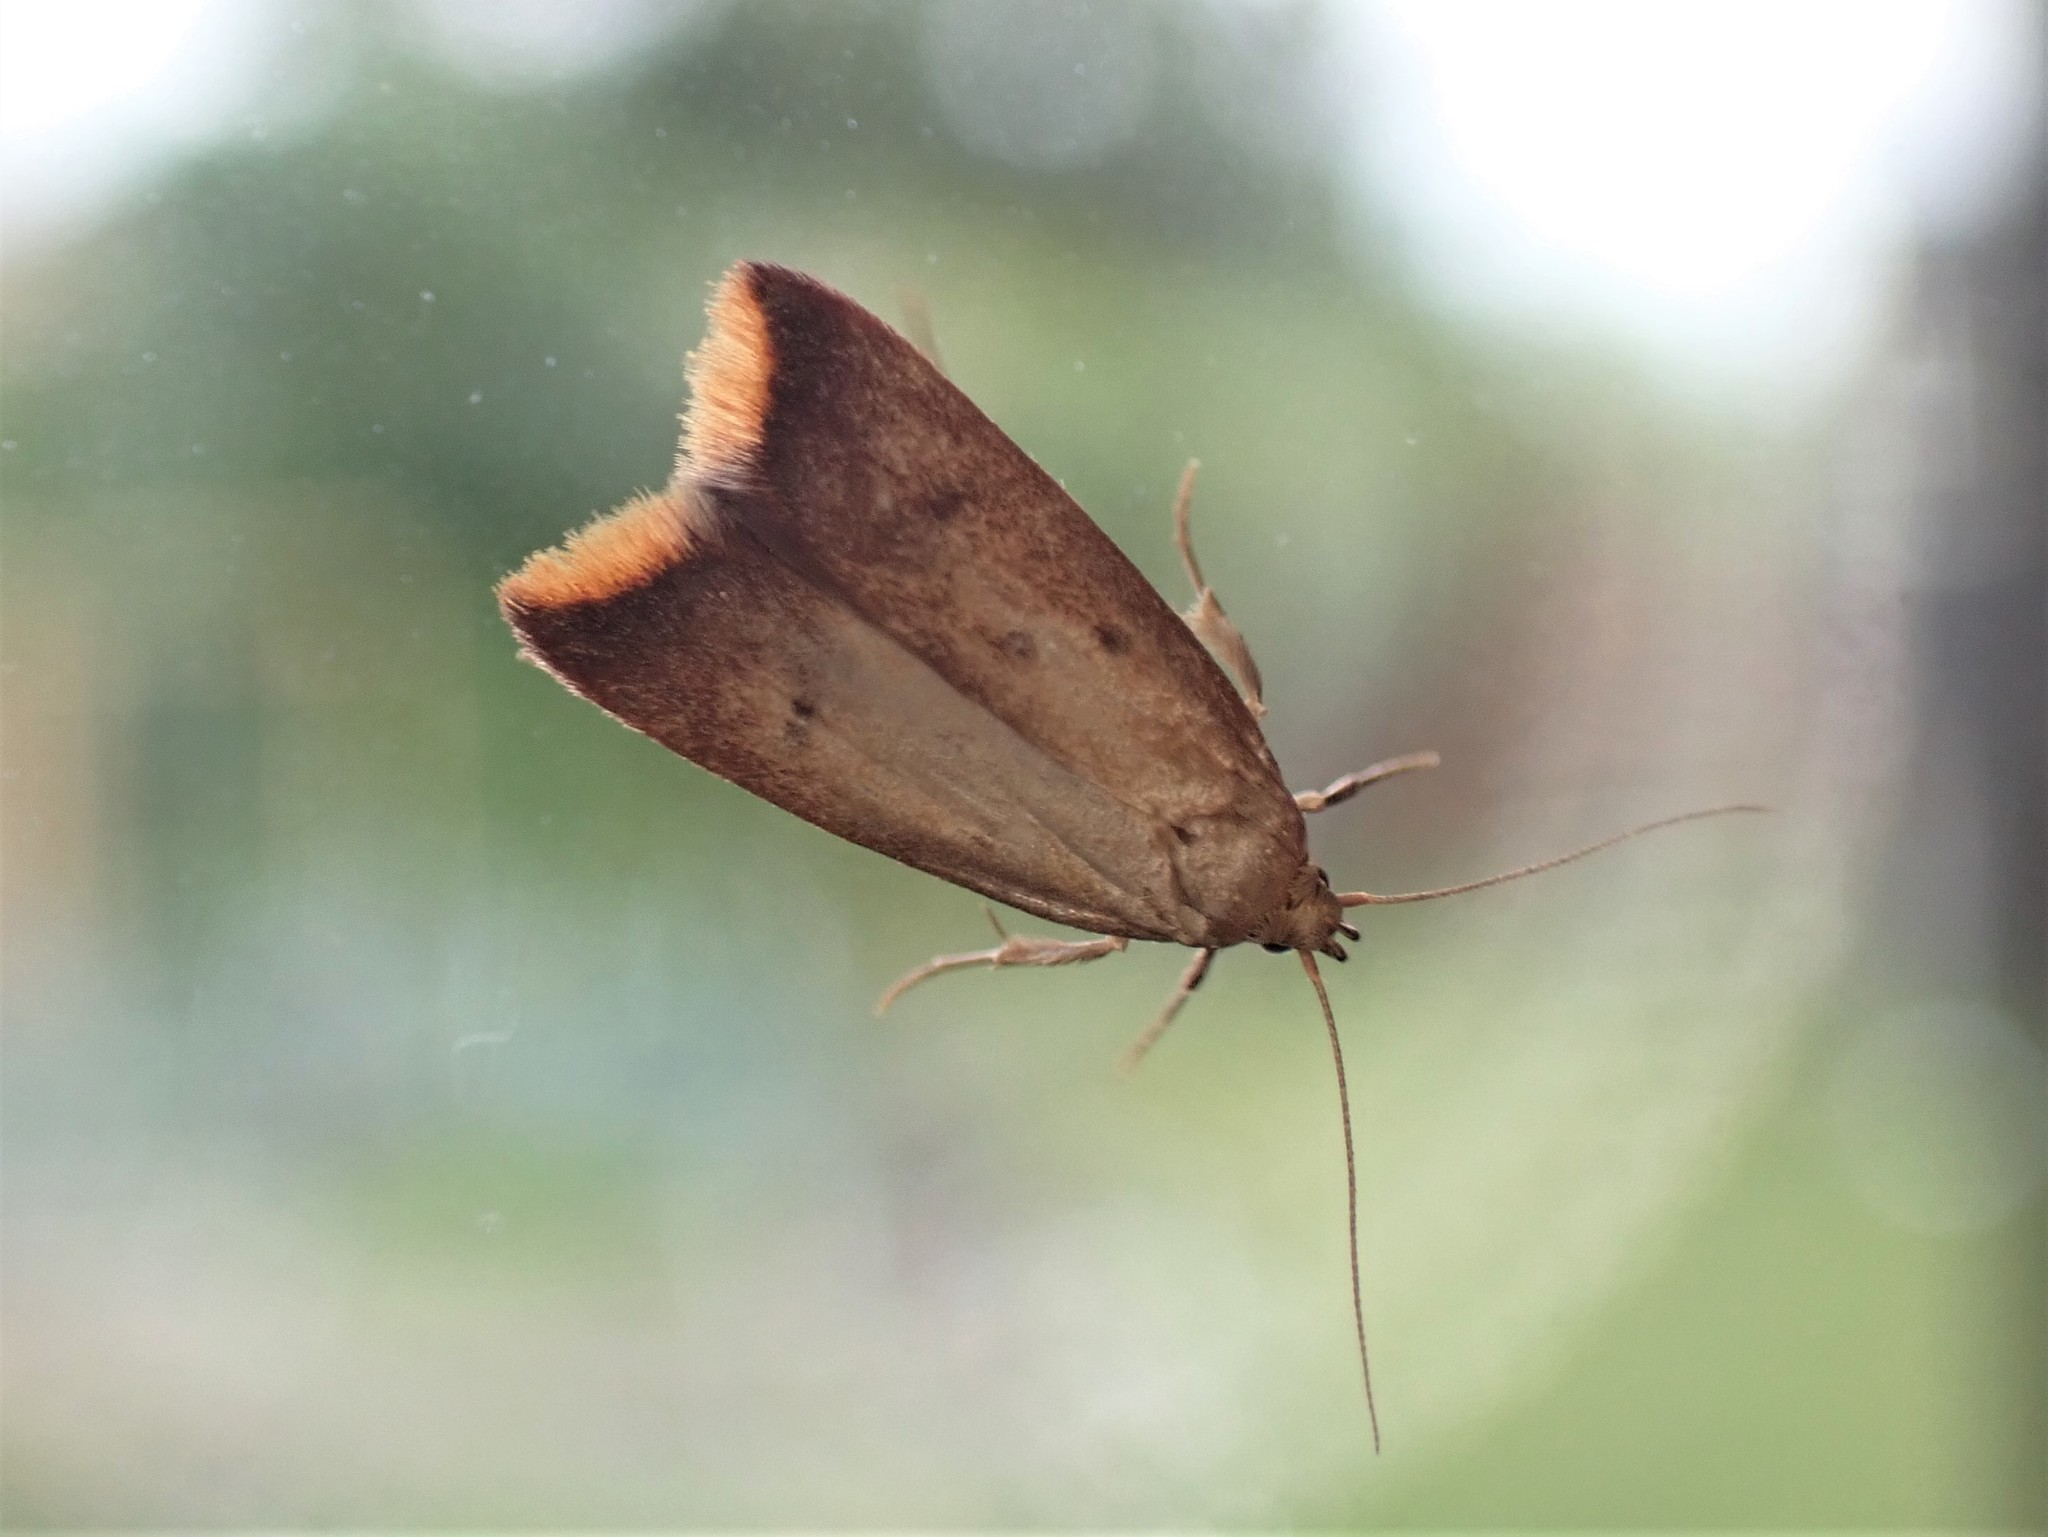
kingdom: Animalia
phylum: Arthropoda
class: Insecta
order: Lepidoptera
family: Oecophoridae
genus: Tachystola
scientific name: Tachystola acroxantha
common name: Ruddy streak
